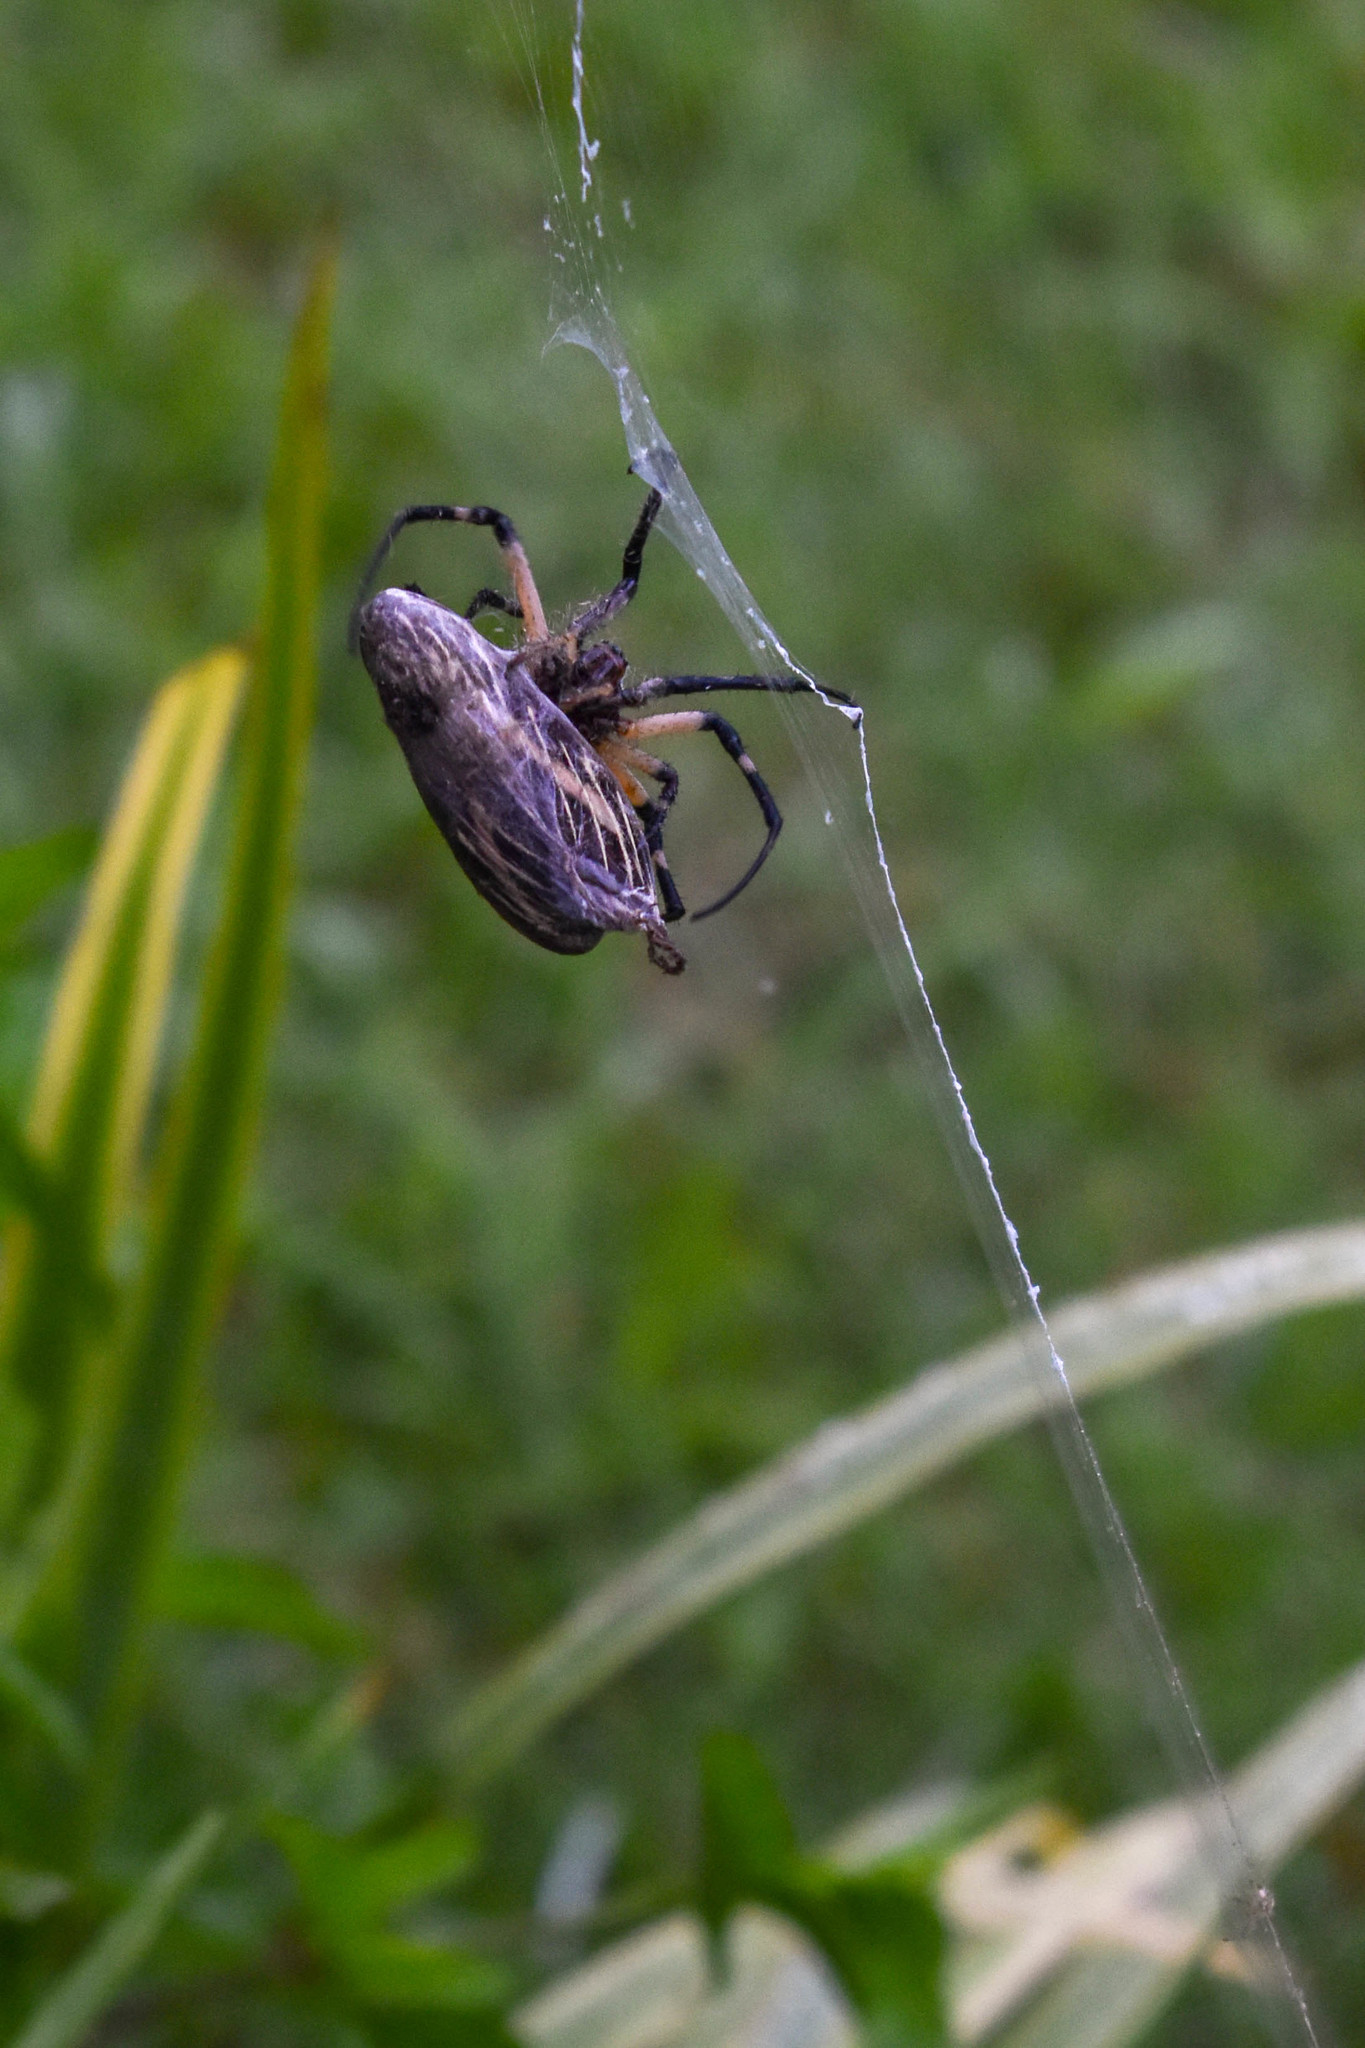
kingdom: Animalia
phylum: Arthropoda
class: Arachnida
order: Araneae
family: Araneidae
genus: Argiope
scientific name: Argiope aurantia
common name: Orb weavers
